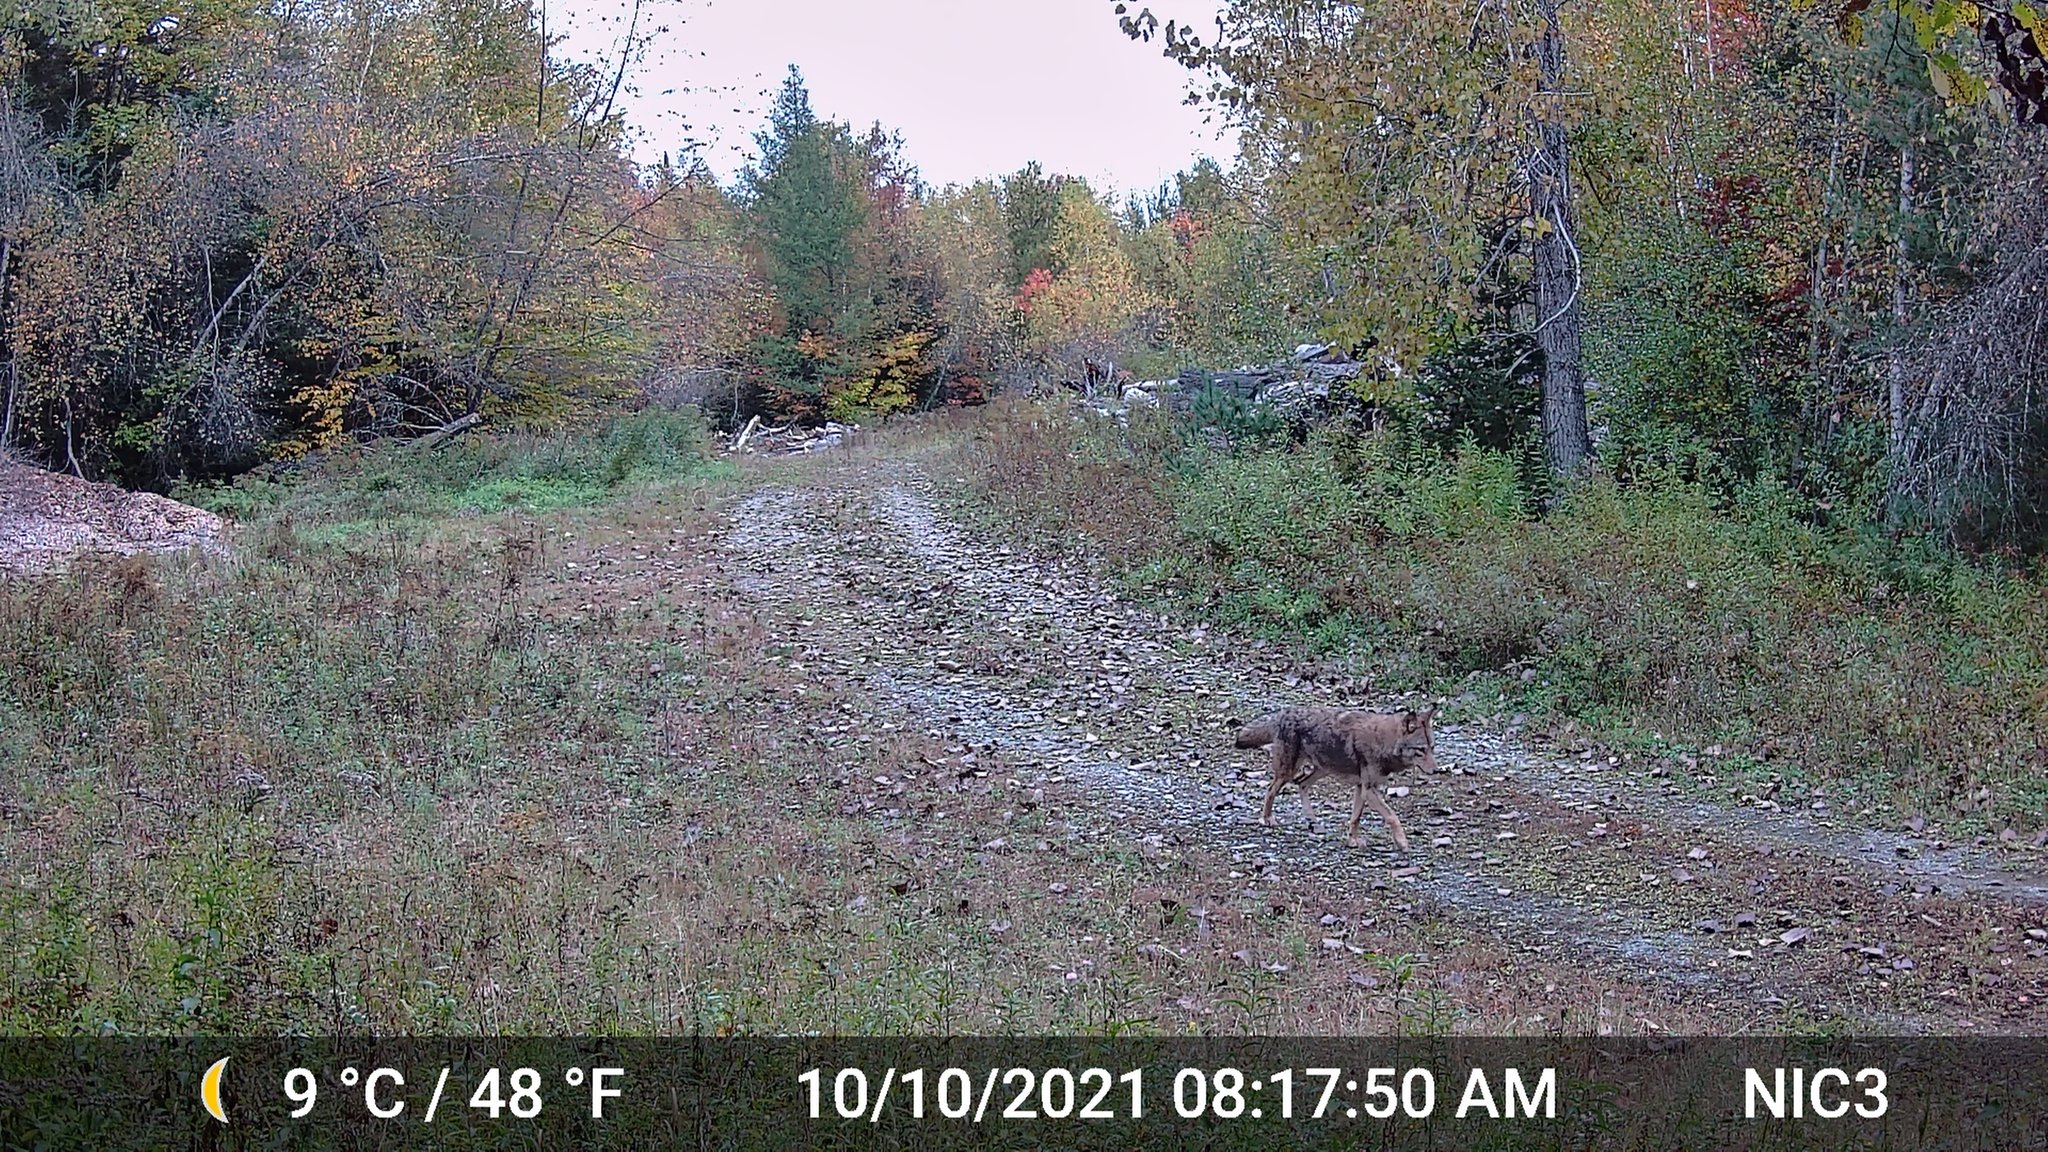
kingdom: Animalia
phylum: Chordata
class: Mammalia
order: Carnivora
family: Canidae
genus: Canis
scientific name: Canis latrans
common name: Coyote
